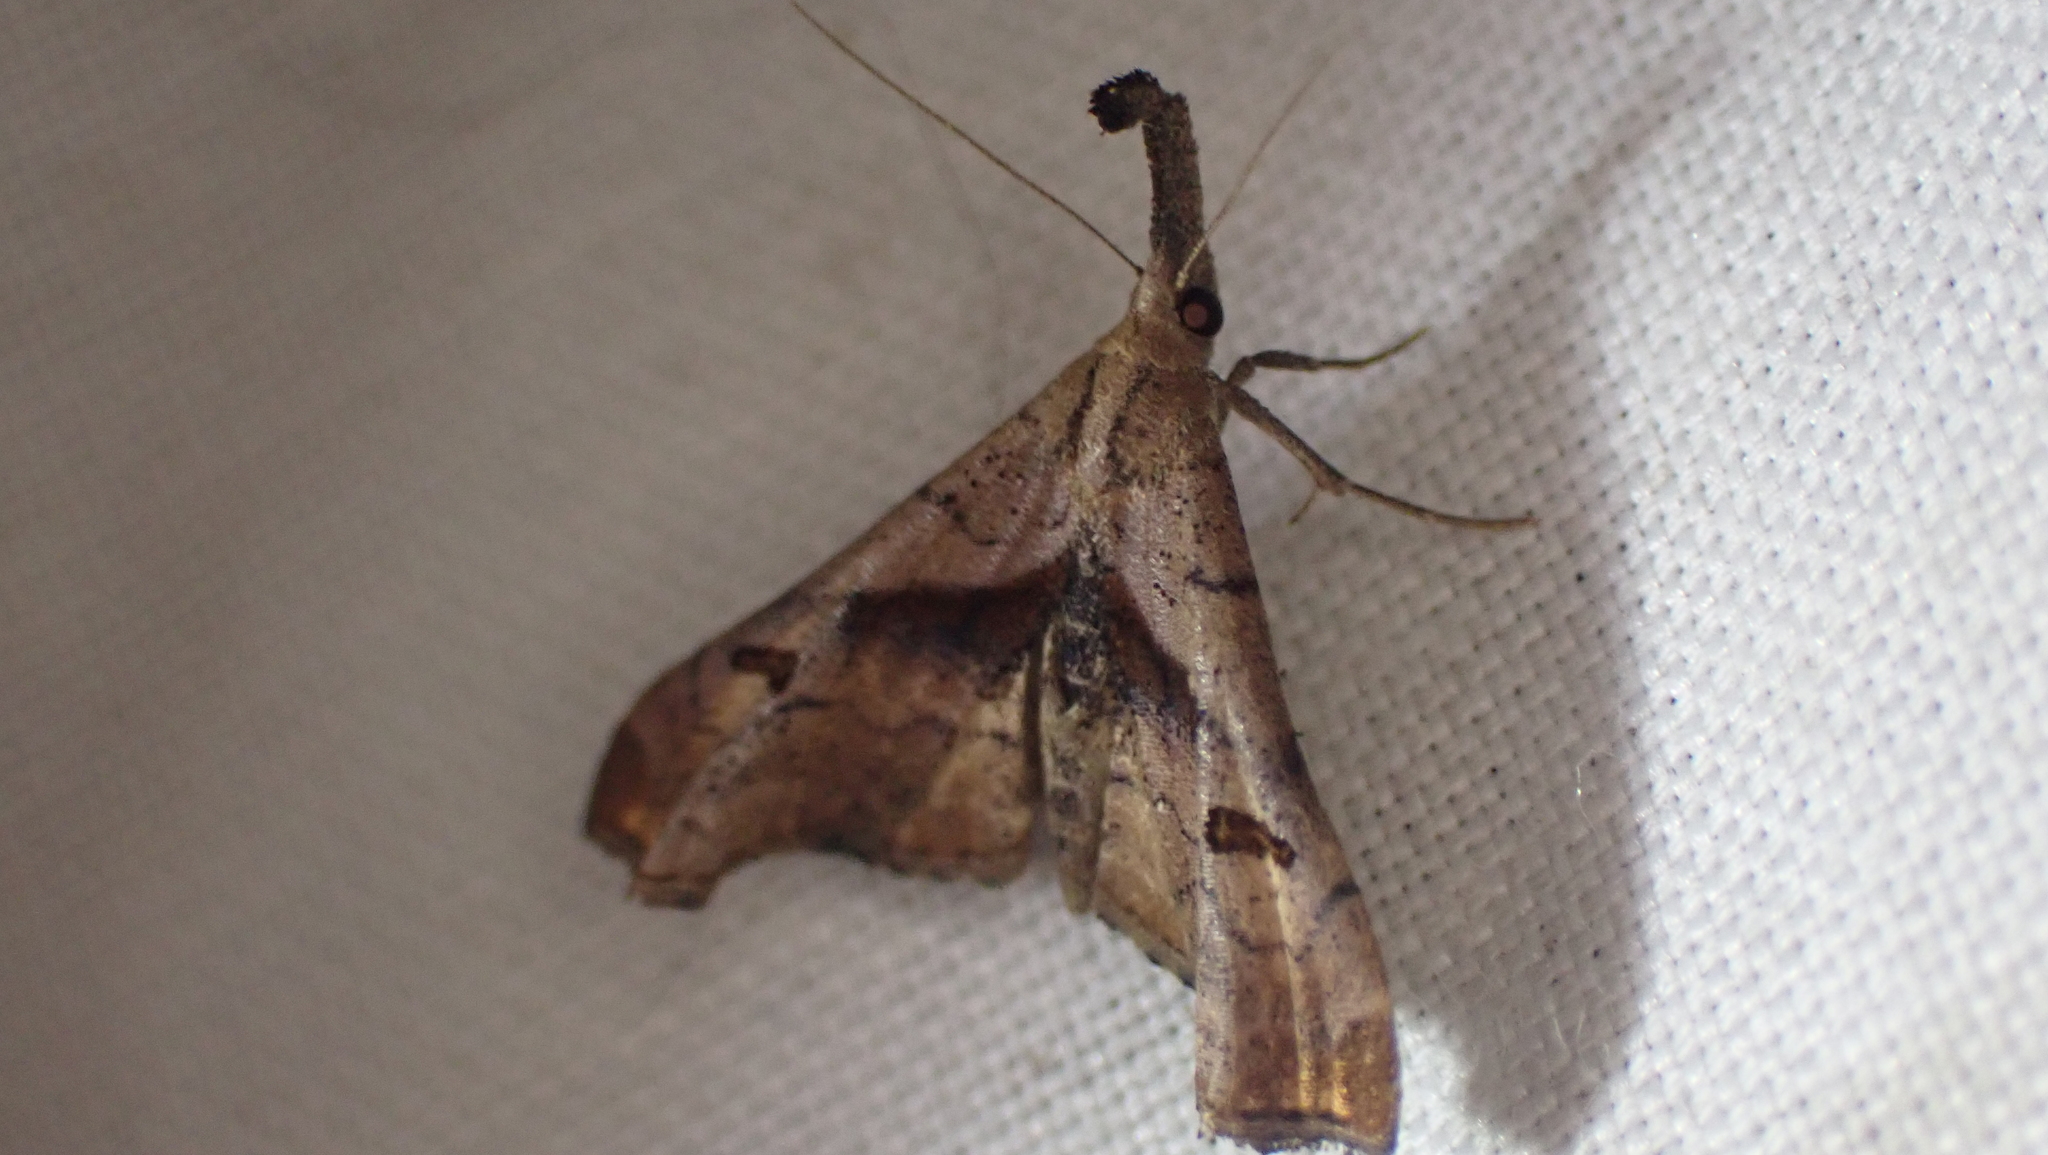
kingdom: Animalia
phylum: Arthropoda
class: Insecta
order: Lepidoptera
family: Erebidae
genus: Palthis
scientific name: Palthis angulalis
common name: Dark-spotted palthis moth
